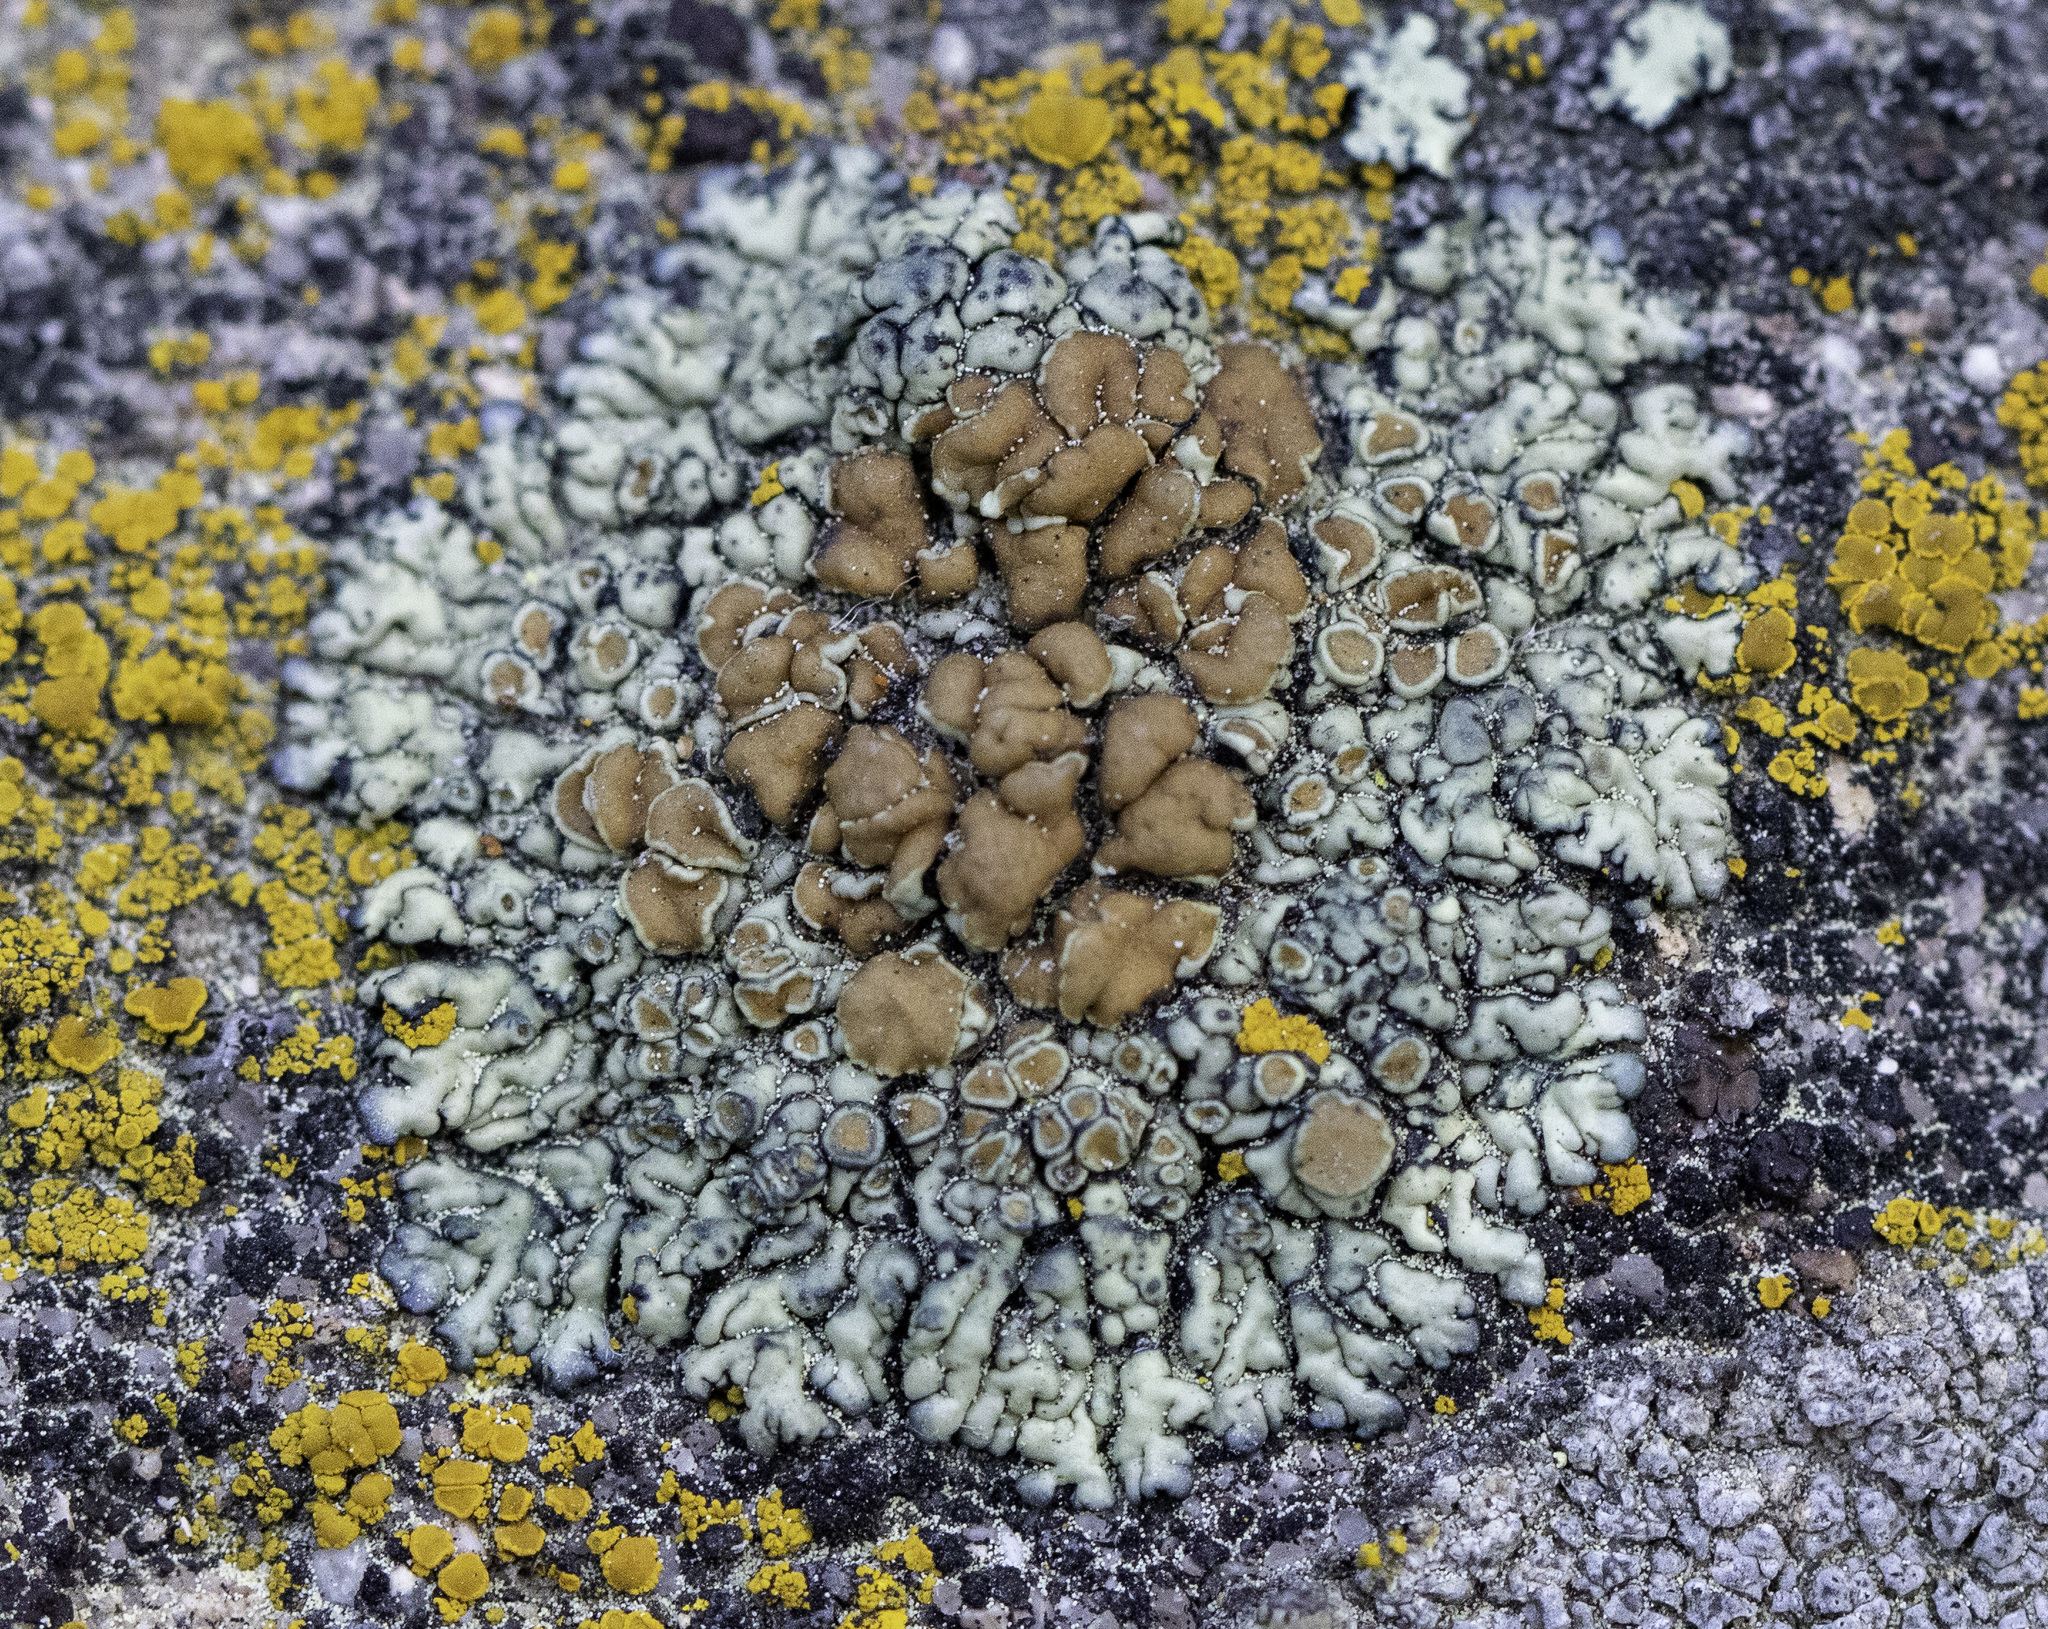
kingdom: Fungi
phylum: Ascomycota
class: Lecanoromycetes
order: Lecanorales
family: Lecanoraceae
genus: Protoparmeliopsis
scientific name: Protoparmeliopsis sierrae
